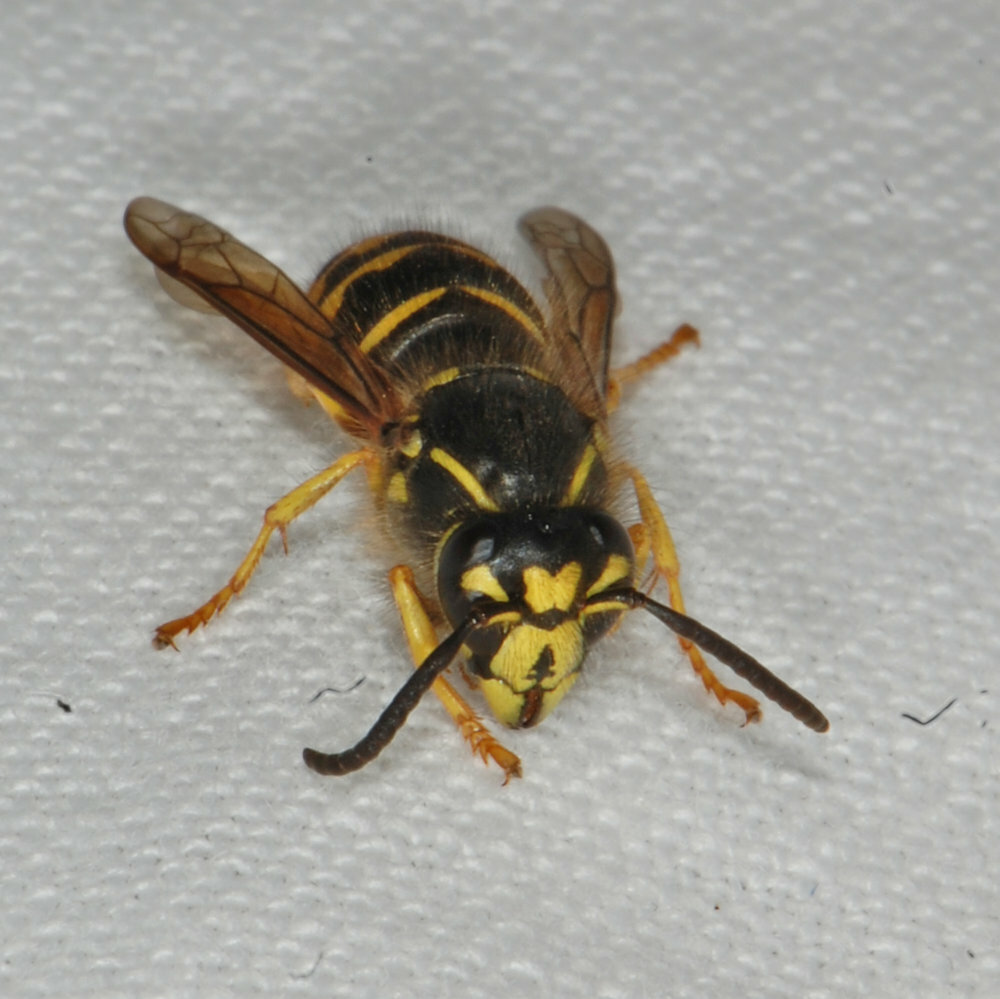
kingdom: Animalia
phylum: Arthropoda
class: Insecta
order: Hymenoptera
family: Vespidae
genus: Dolichovespula
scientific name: Dolichovespula arenaria
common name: Aerial yellowjacket
